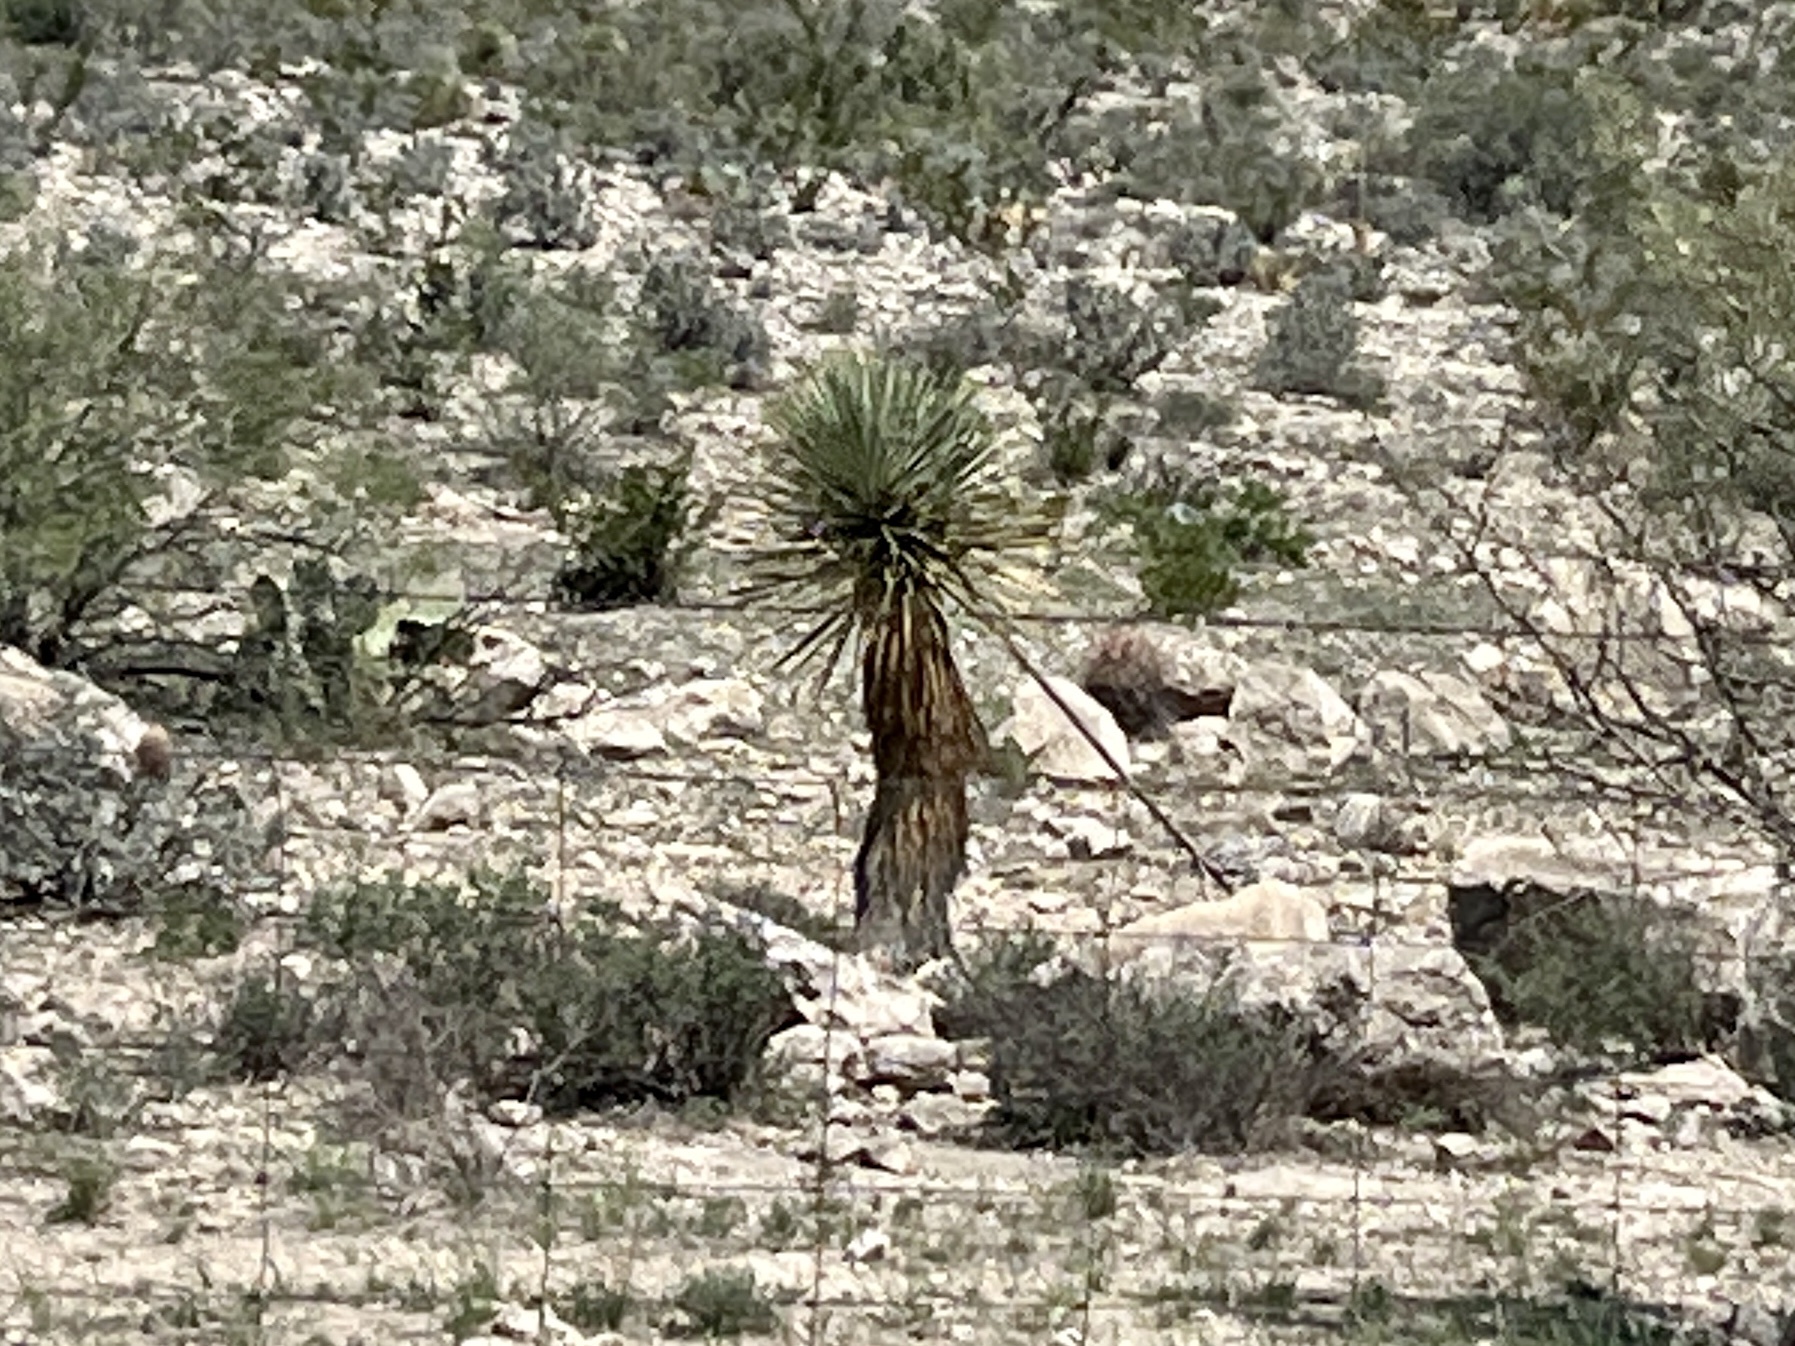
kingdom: Plantae
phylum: Tracheophyta
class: Liliopsida
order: Asparagales
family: Asparagaceae
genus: Yucca
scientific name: Yucca thompsoniana
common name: Trans-pecos yucca
